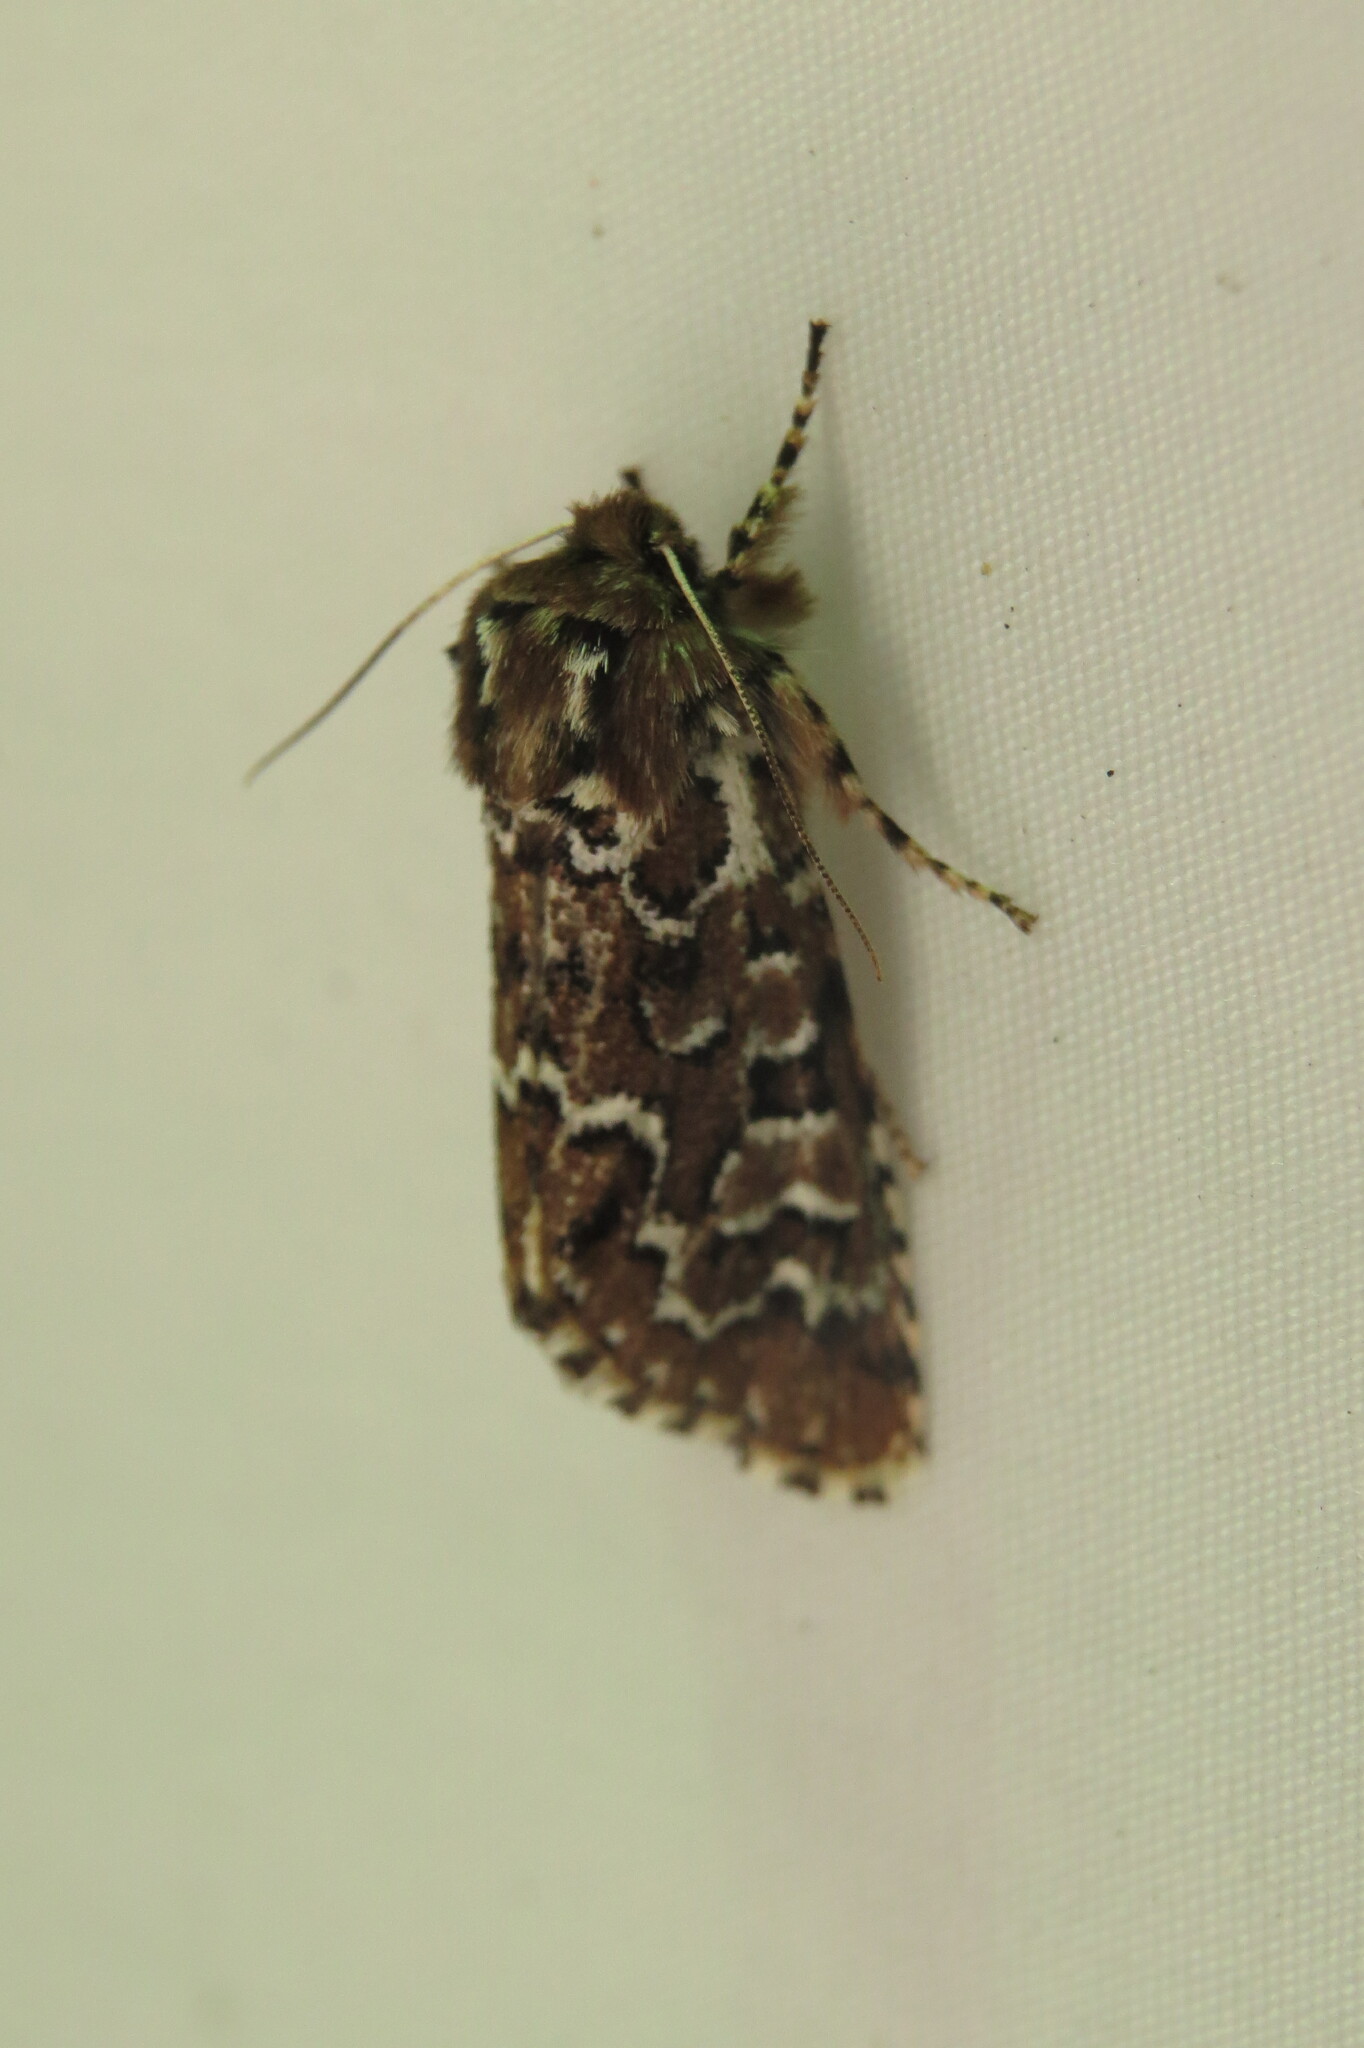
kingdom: Animalia
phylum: Arthropoda
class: Insecta
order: Lepidoptera
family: Noctuidae
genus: Feralia
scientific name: Feralia jocosa
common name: Joker
